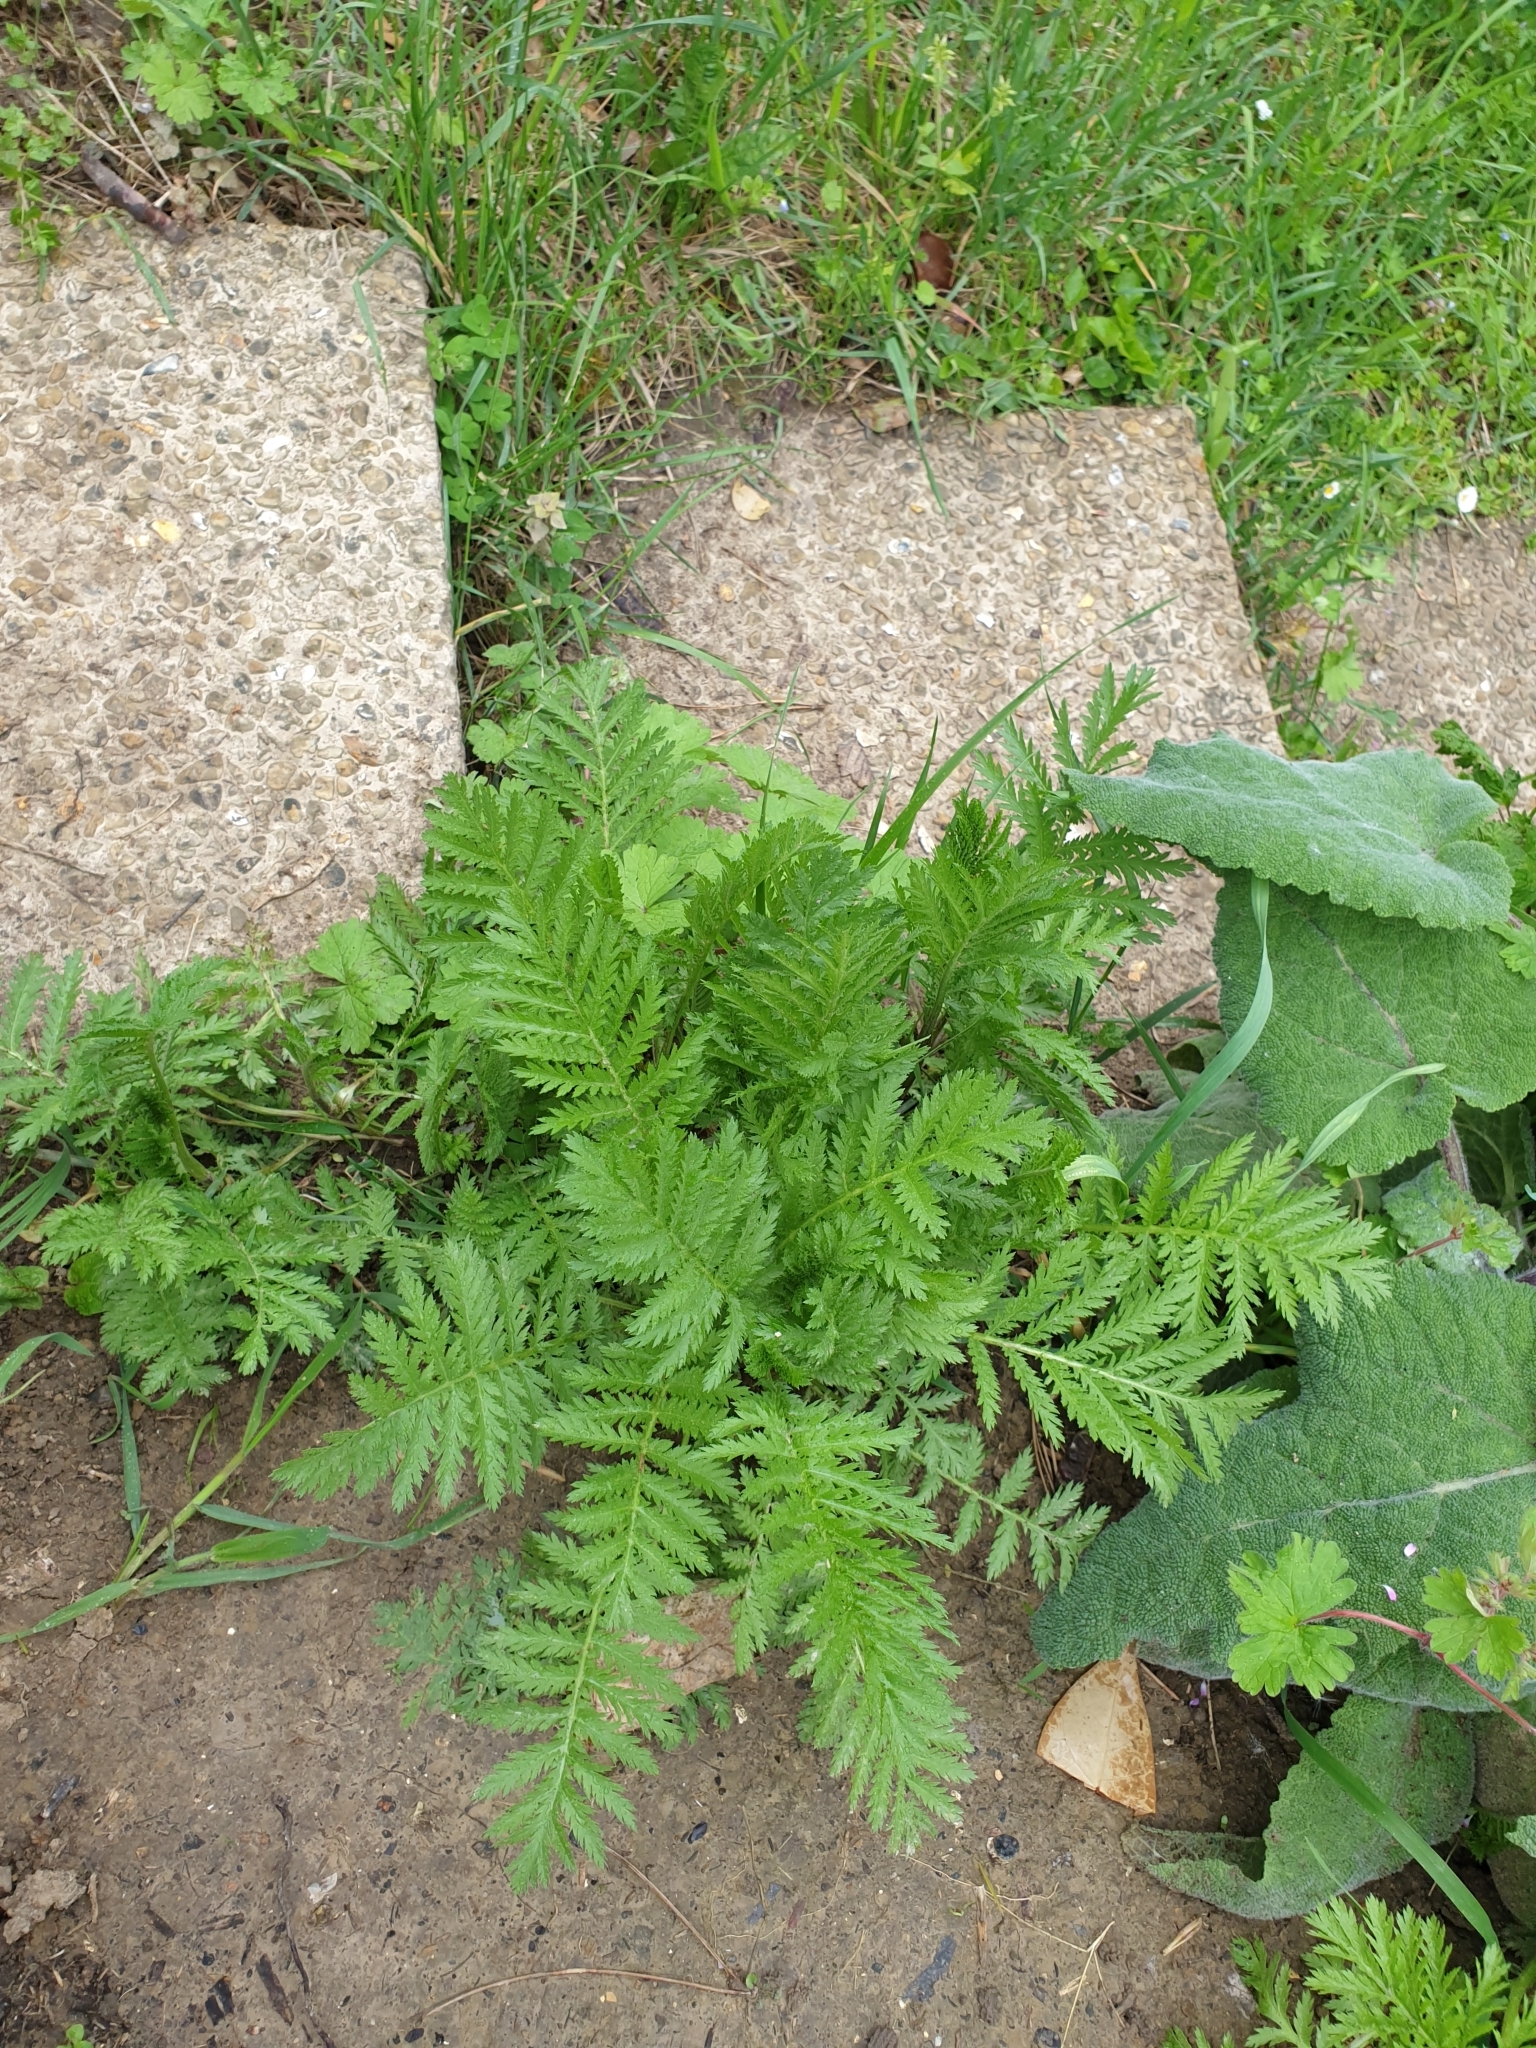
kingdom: Plantae
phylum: Tracheophyta
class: Magnoliopsida
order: Asterales
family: Asteraceae
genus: Tanacetum
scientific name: Tanacetum vulgare
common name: Common tansy
